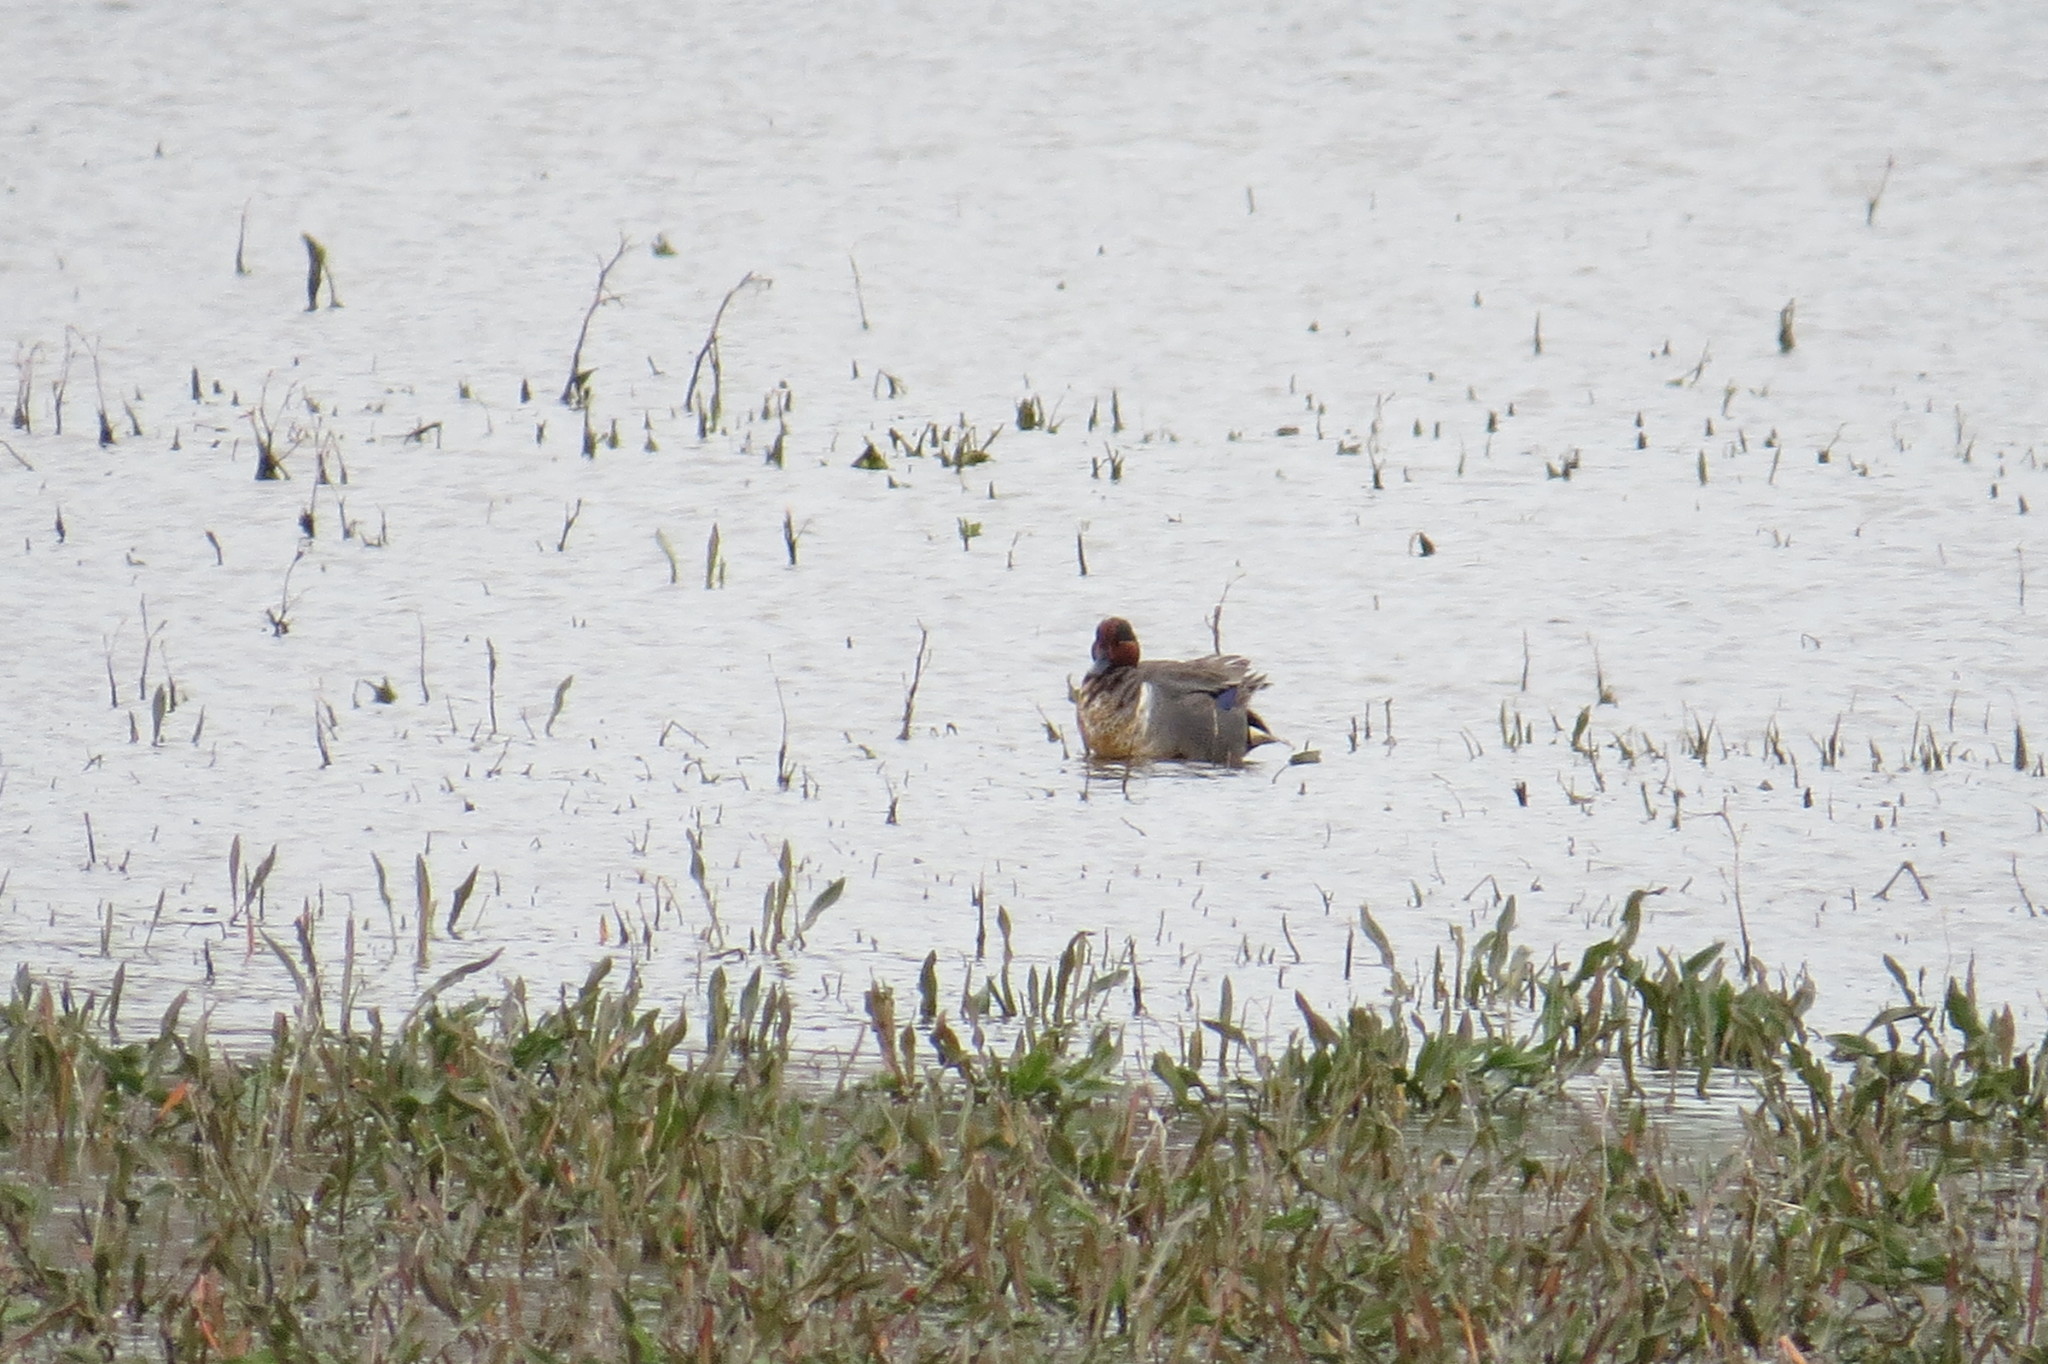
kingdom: Animalia
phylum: Chordata
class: Aves
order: Anseriformes
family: Anatidae
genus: Anas
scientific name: Anas crecca
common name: Eurasian teal
